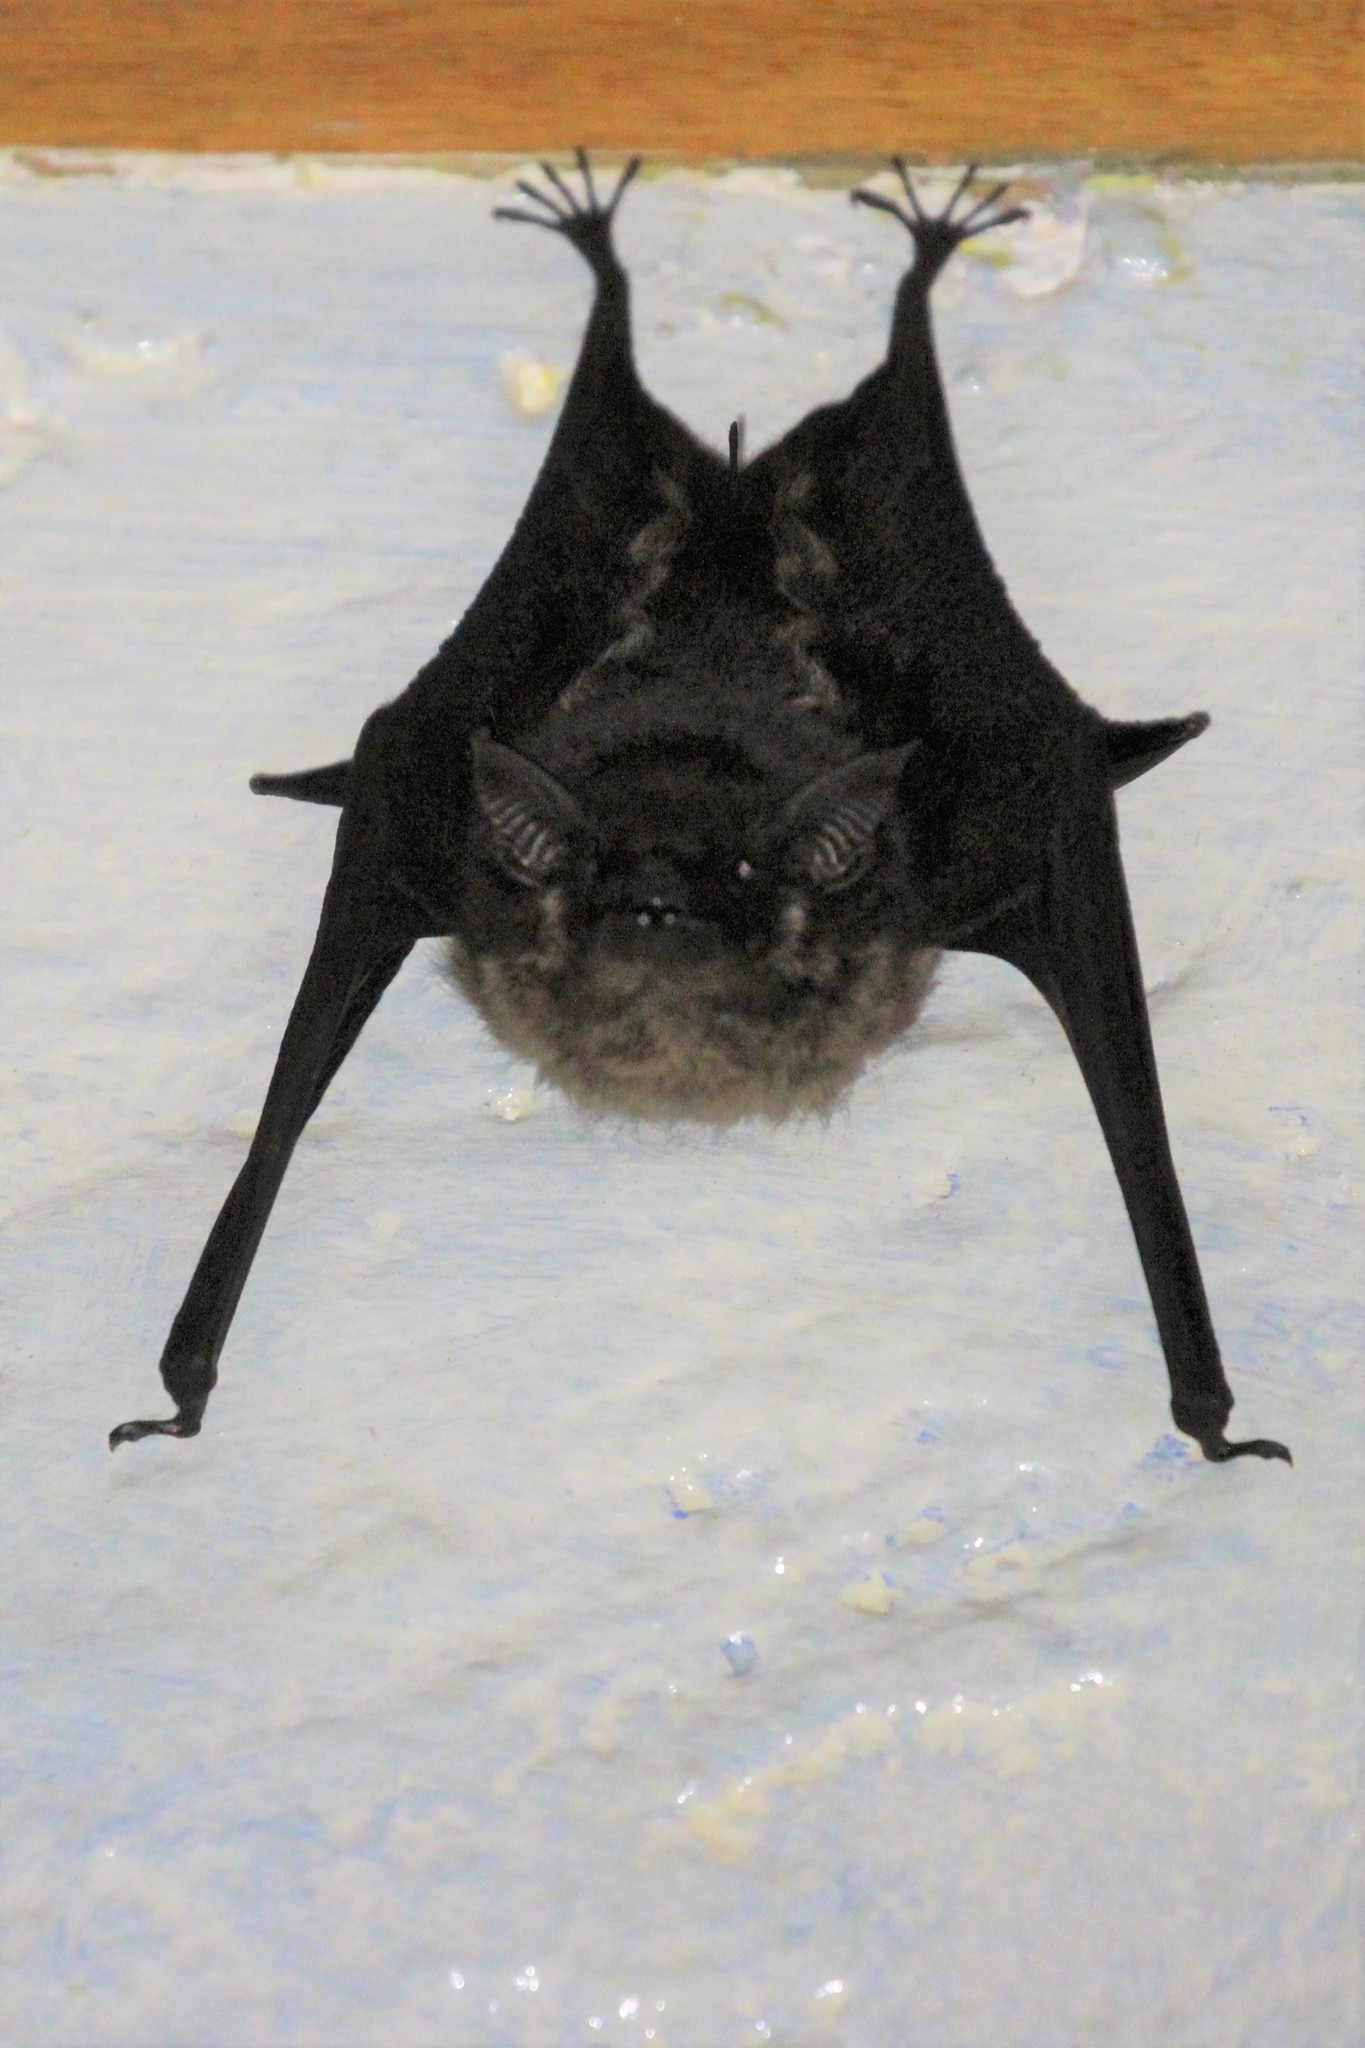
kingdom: Animalia
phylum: Chordata
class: Mammalia
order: Chiroptera
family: Emballonuridae
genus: Saccopteryx
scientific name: Saccopteryx bilineata
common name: Greater sac-winged bat
